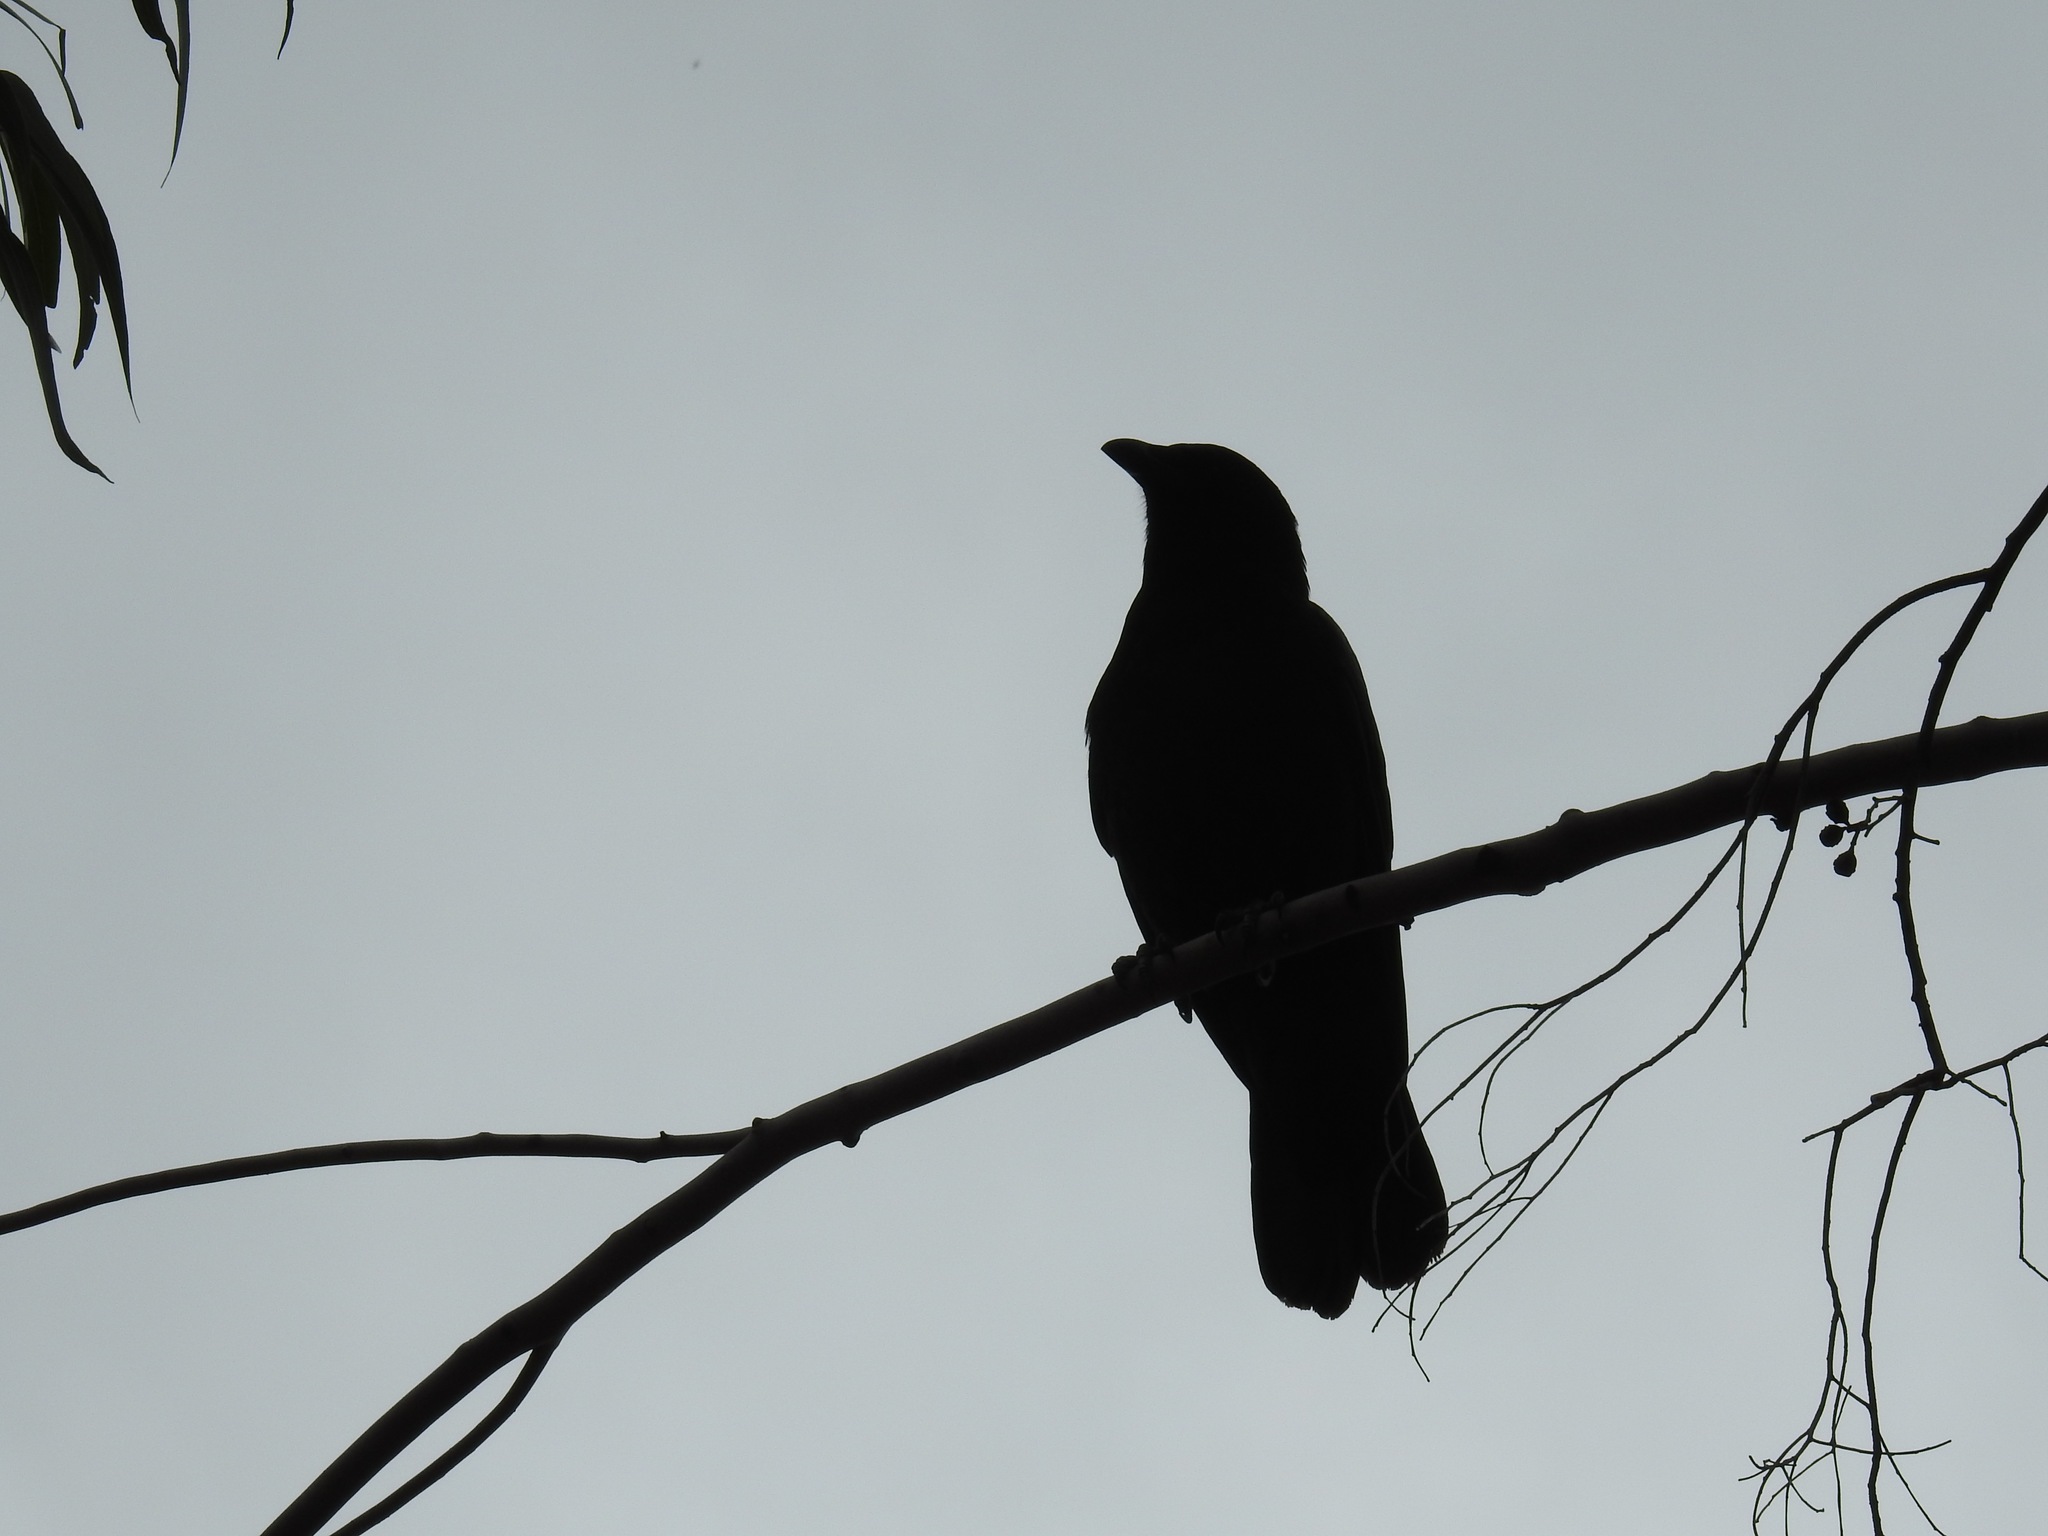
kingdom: Animalia
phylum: Chordata
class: Aves
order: Passeriformes
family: Corvidae
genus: Corvus
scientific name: Corvus brachyrhynchos
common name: American crow
